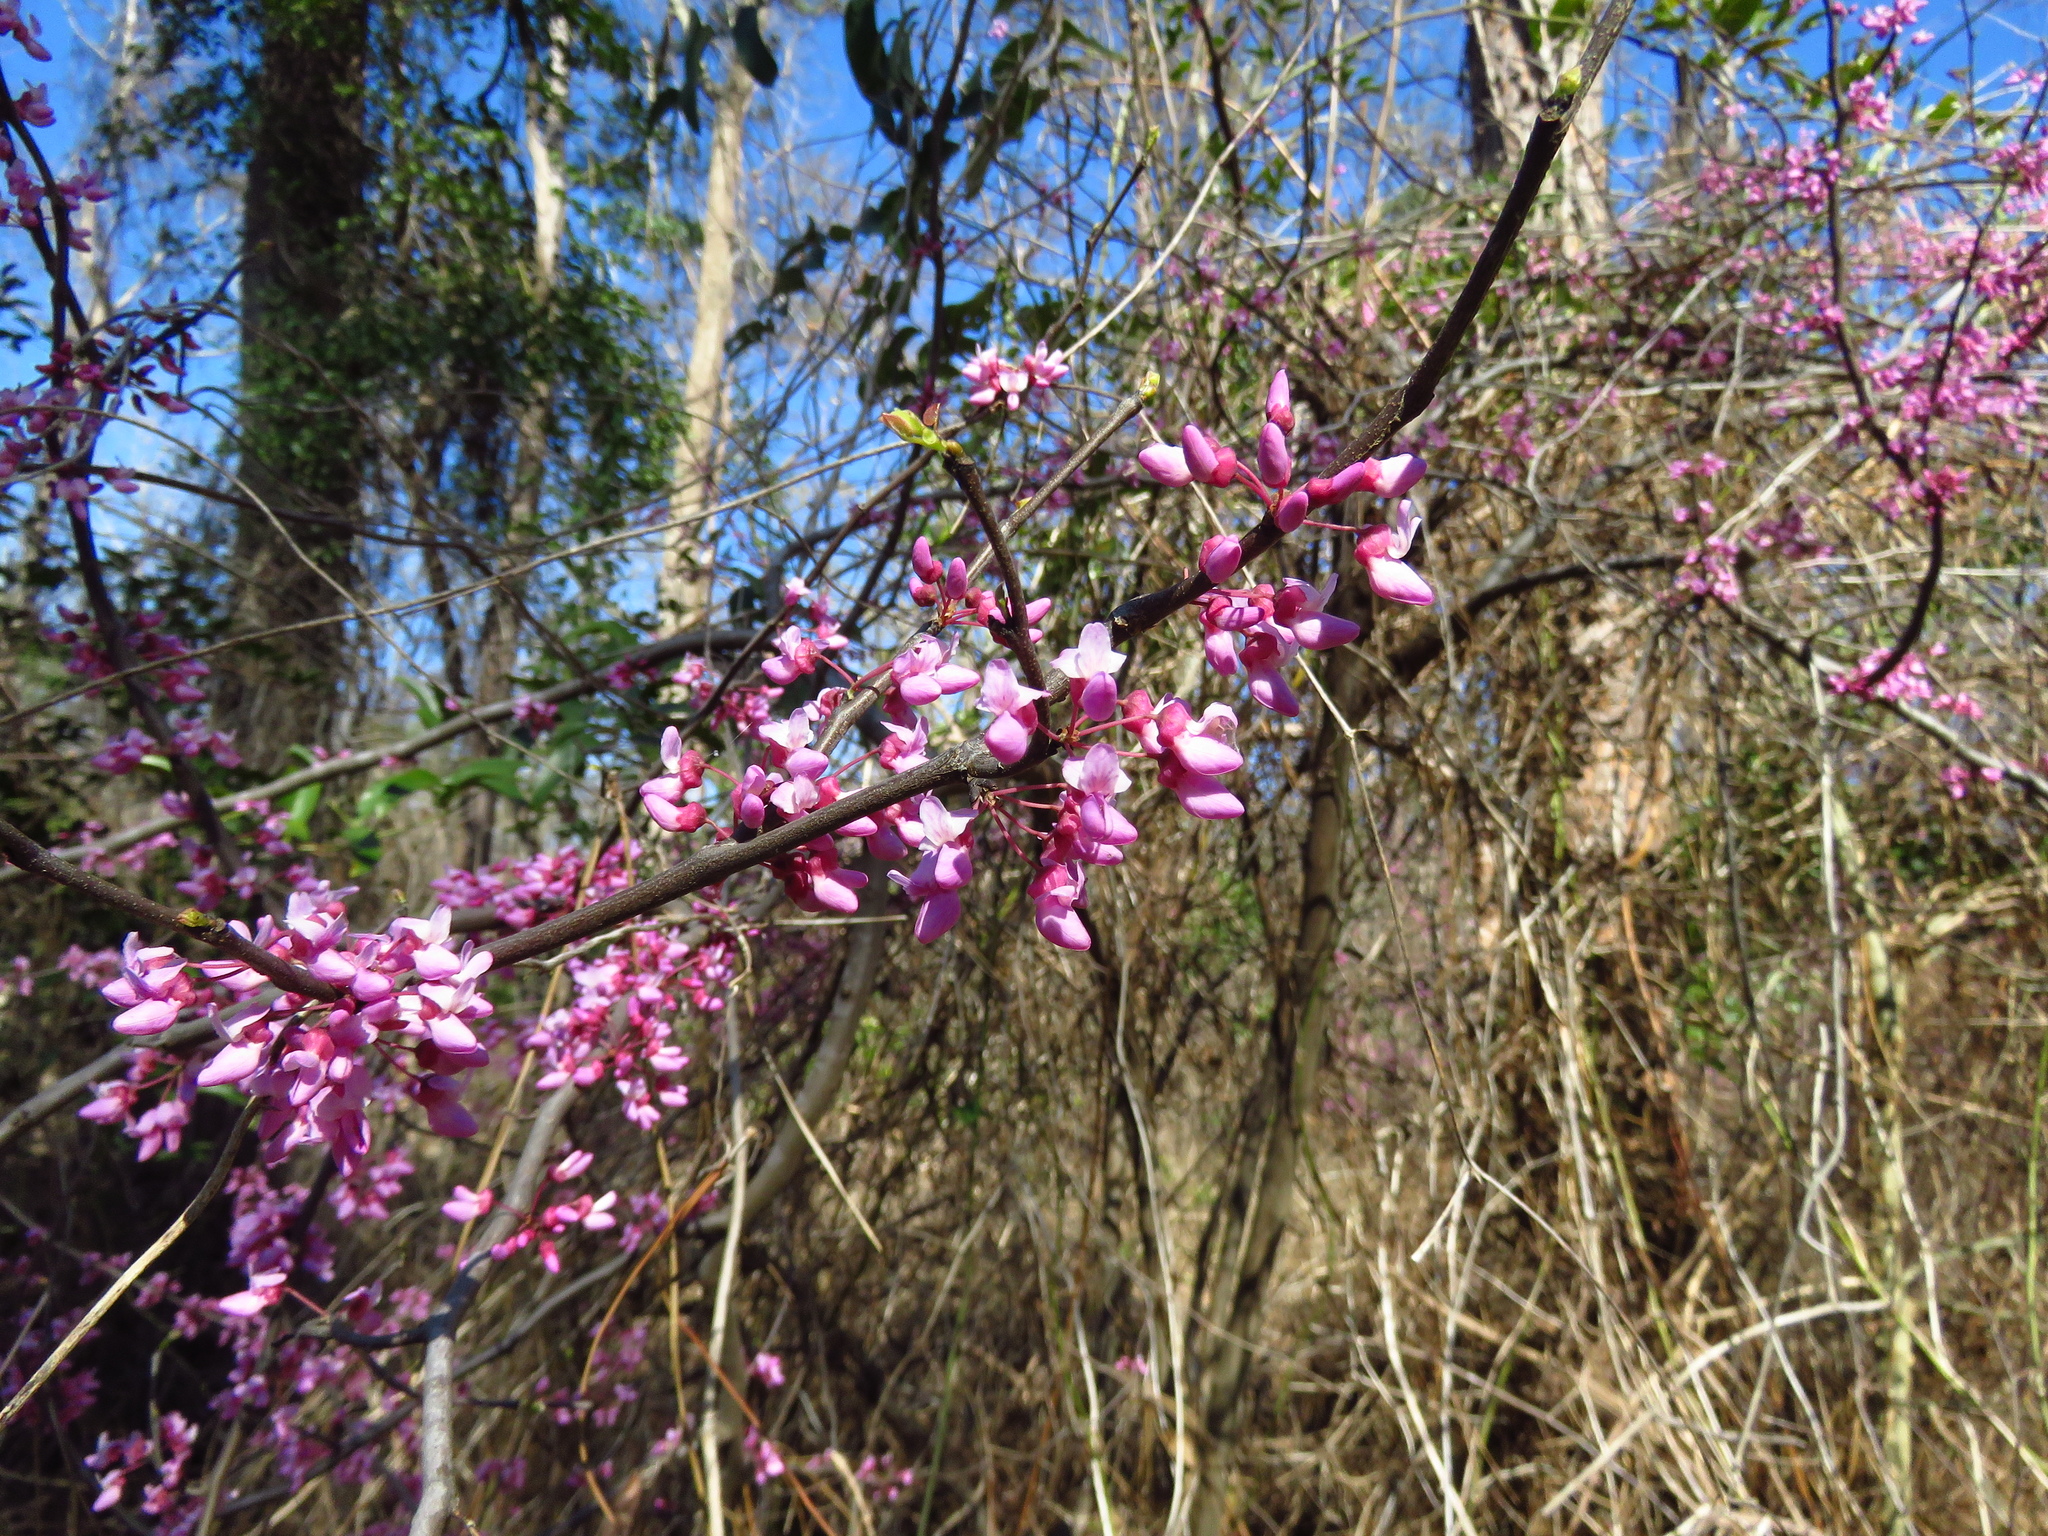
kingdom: Plantae
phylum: Tracheophyta
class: Magnoliopsida
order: Fabales
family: Fabaceae
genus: Cercis
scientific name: Cercis canadensis
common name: Eastern redbud
